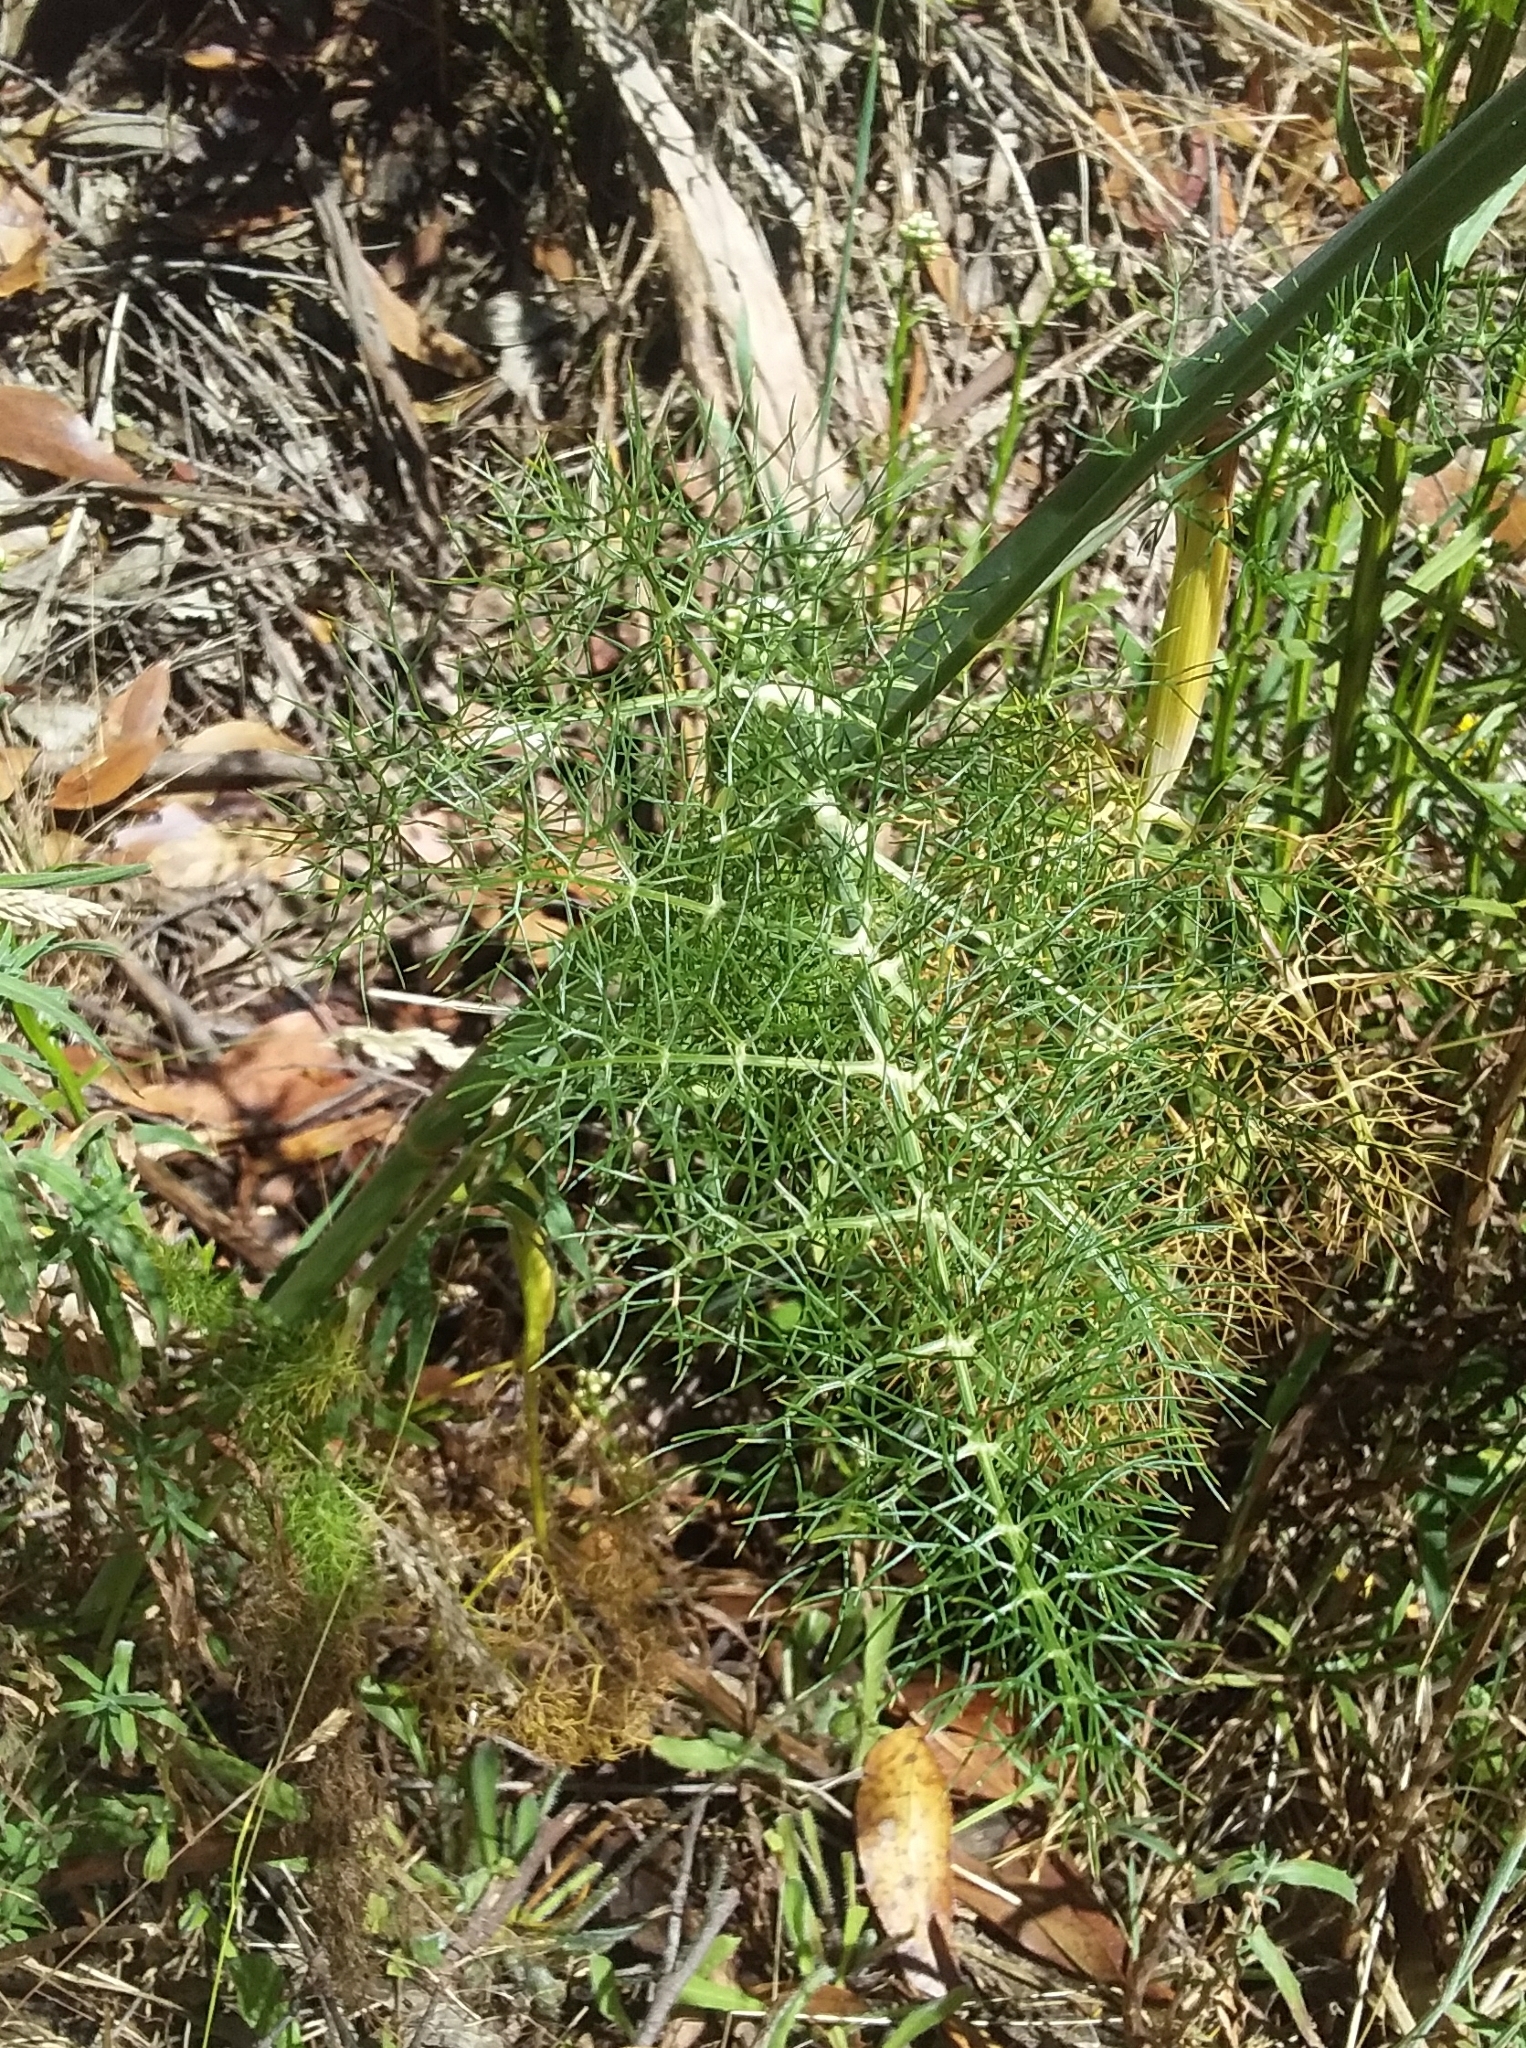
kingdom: Plantae
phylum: Tracheophyta
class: Magnoliopsida
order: Apiales
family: Apiaceae
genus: Foeniculum
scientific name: Foeniculum vulgare
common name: Fennel
